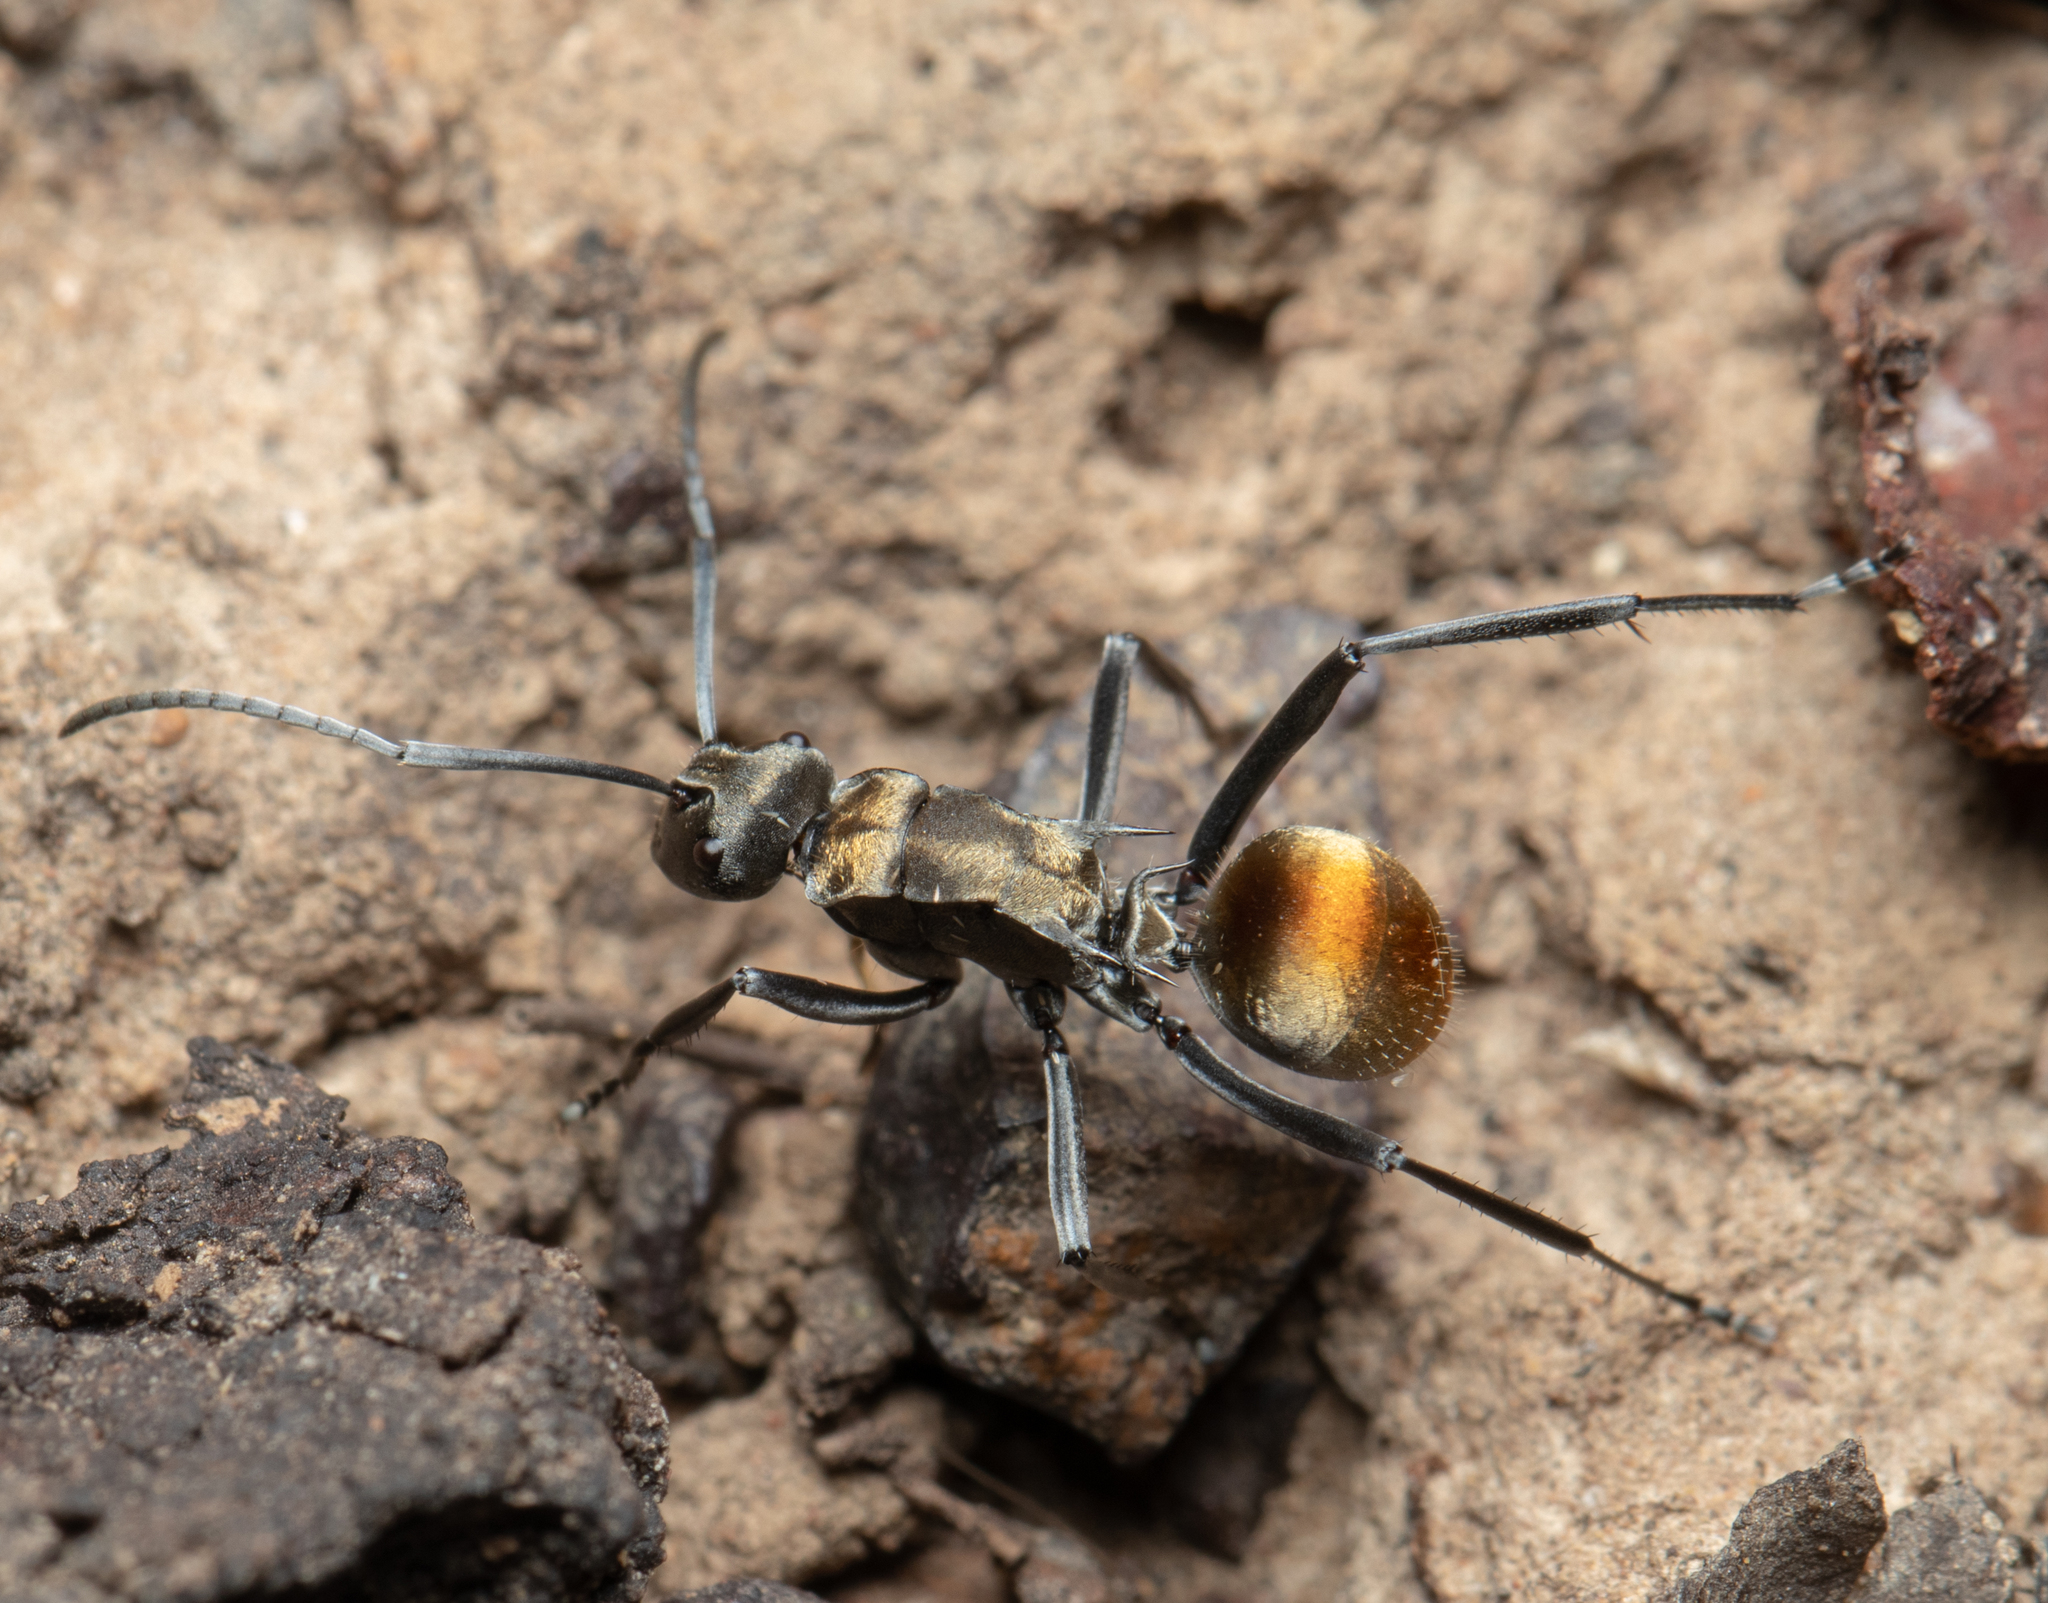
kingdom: Animalia
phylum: Arthropoda
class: Insecta
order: Hymenoptera
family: Formicidae
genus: Polyrhachis
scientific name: Polyrhachis ammon
